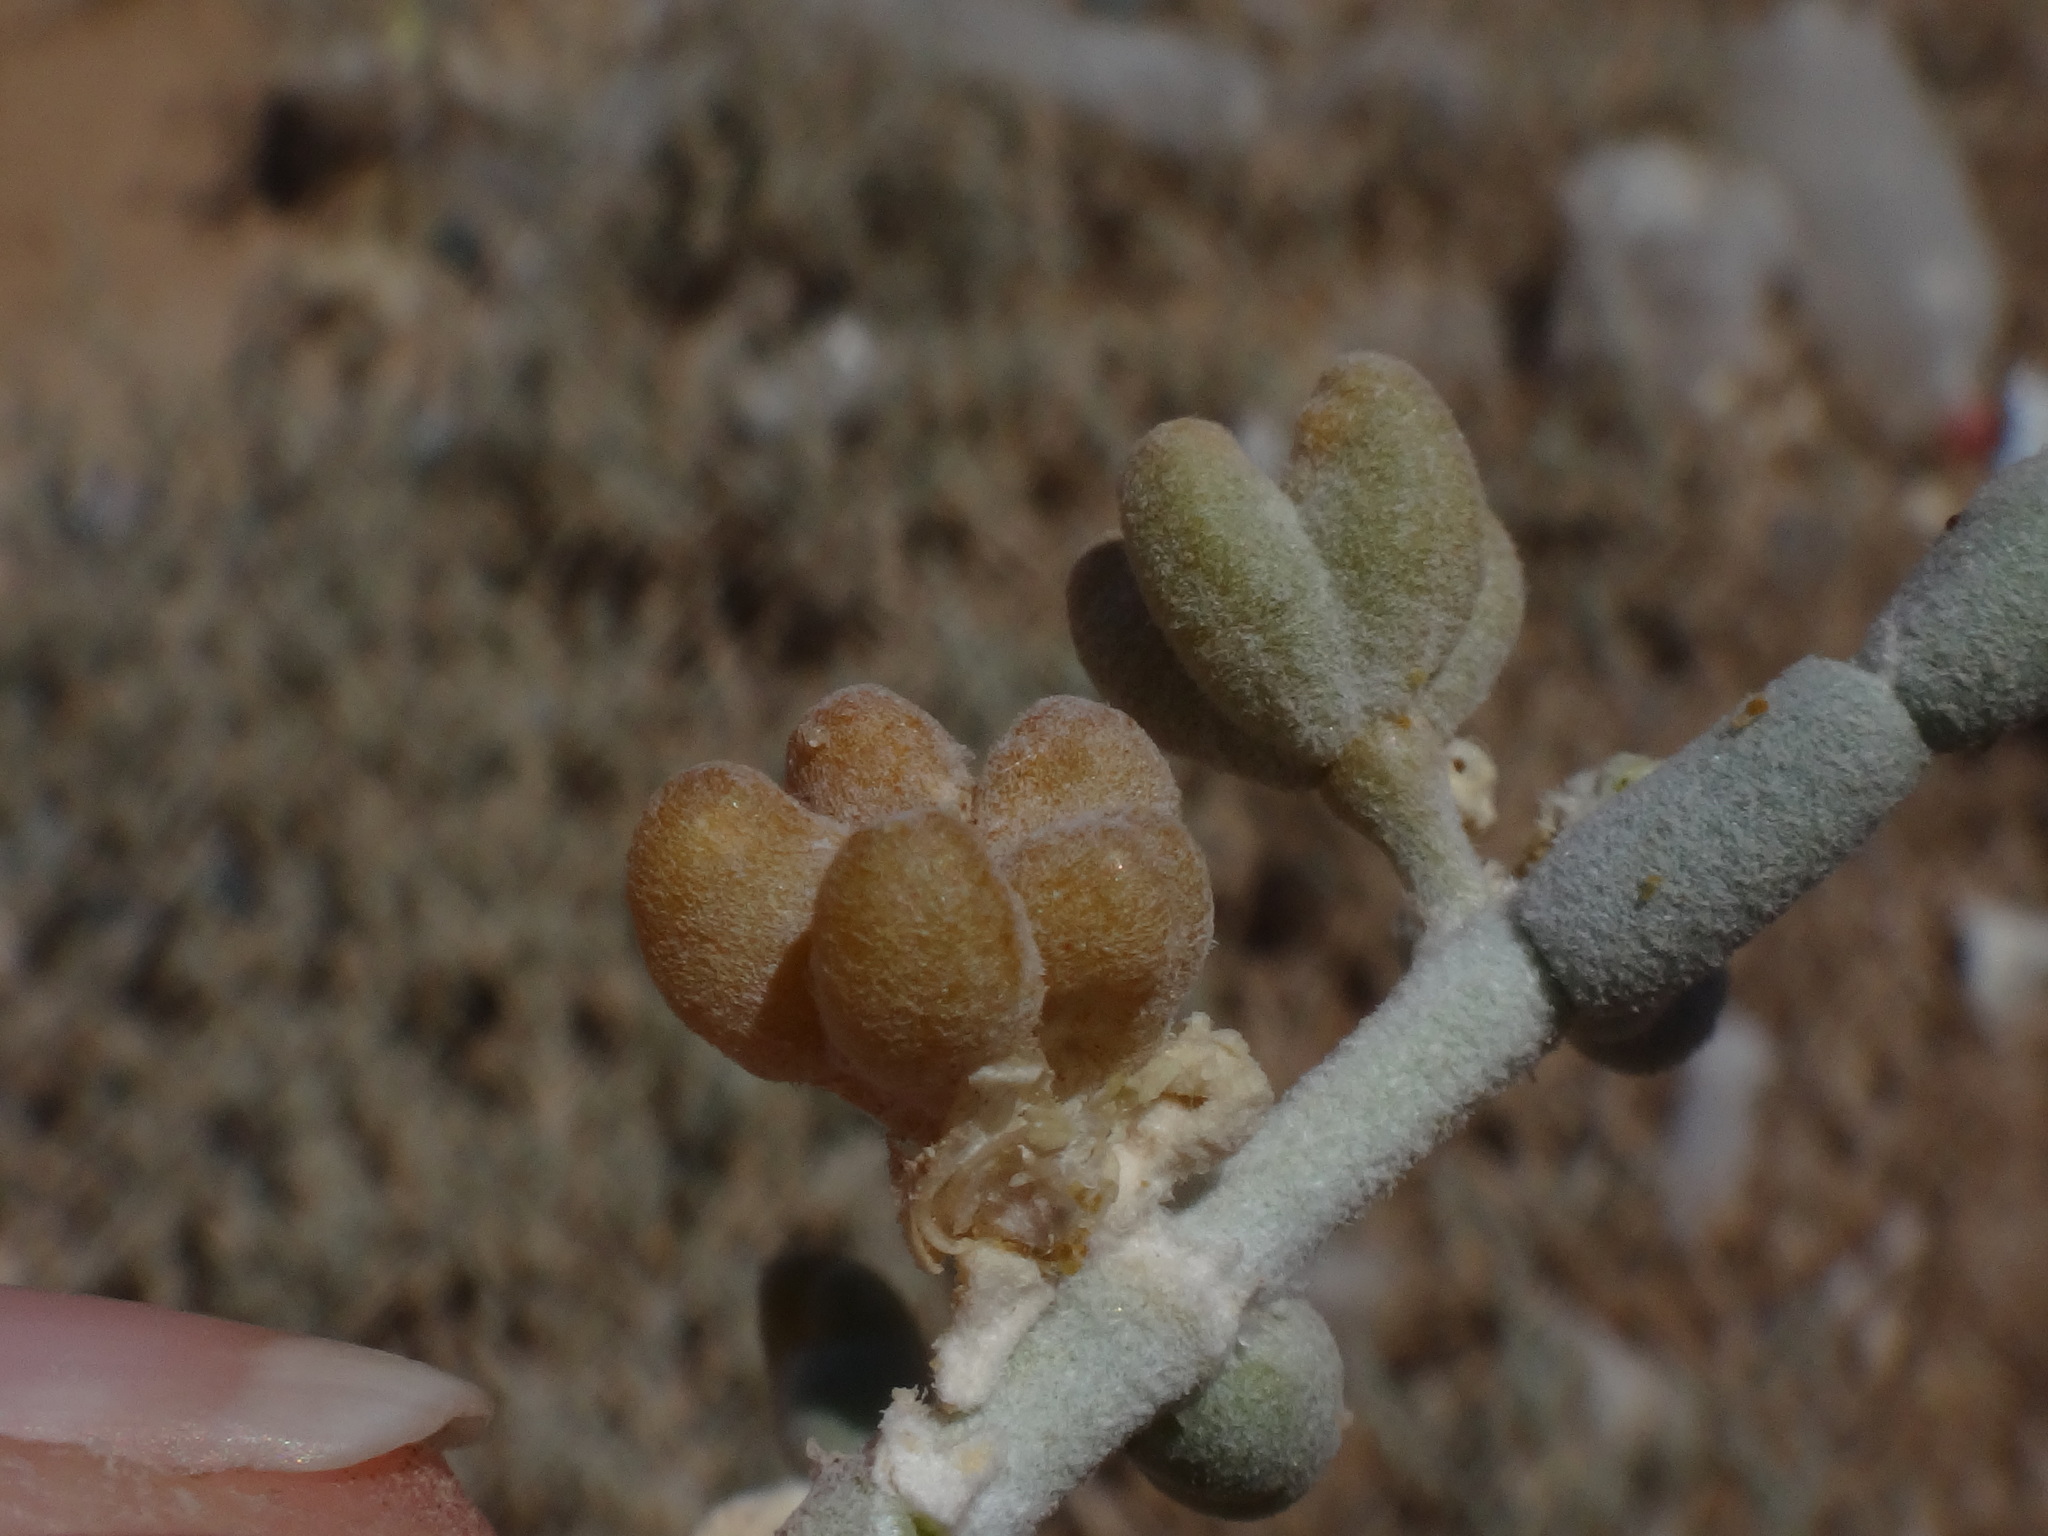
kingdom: Plantae
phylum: Tracheophyta
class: Magnoliopsida
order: Zygophyllales
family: Zygophyllaceae
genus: Tetraena
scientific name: Tetraena alba
